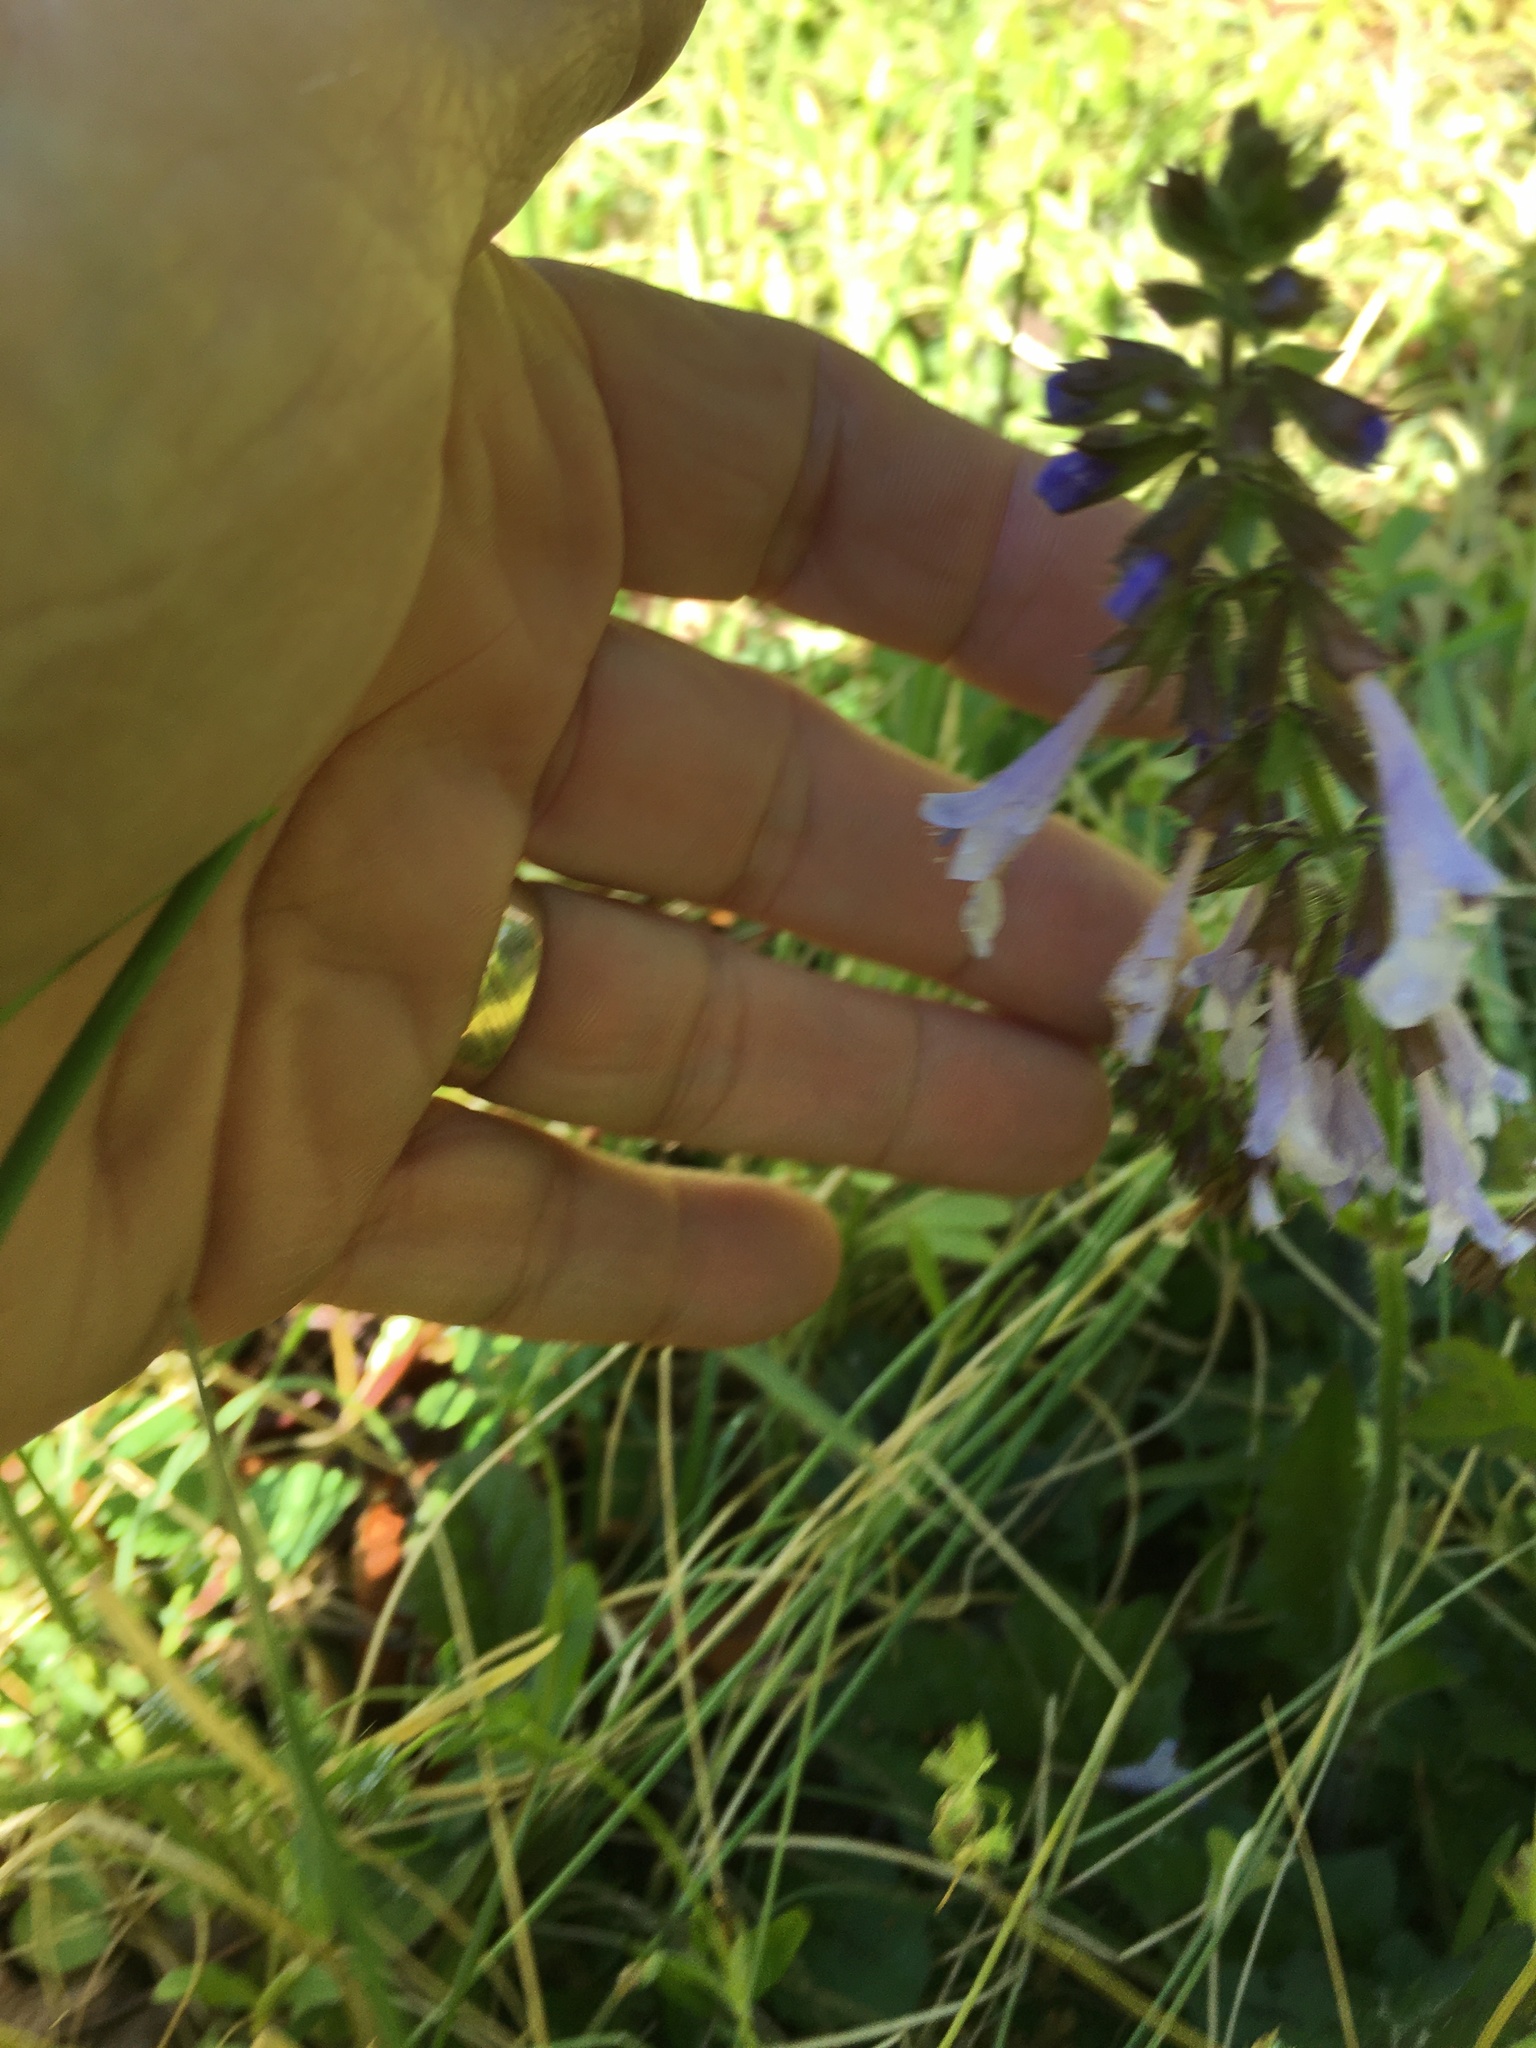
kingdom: Plantae
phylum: Tracheophyta
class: Magnoliopsida
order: Lamiales
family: Lamiaceae
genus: Salvia
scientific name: Salvia lyrata
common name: Cancerweed
